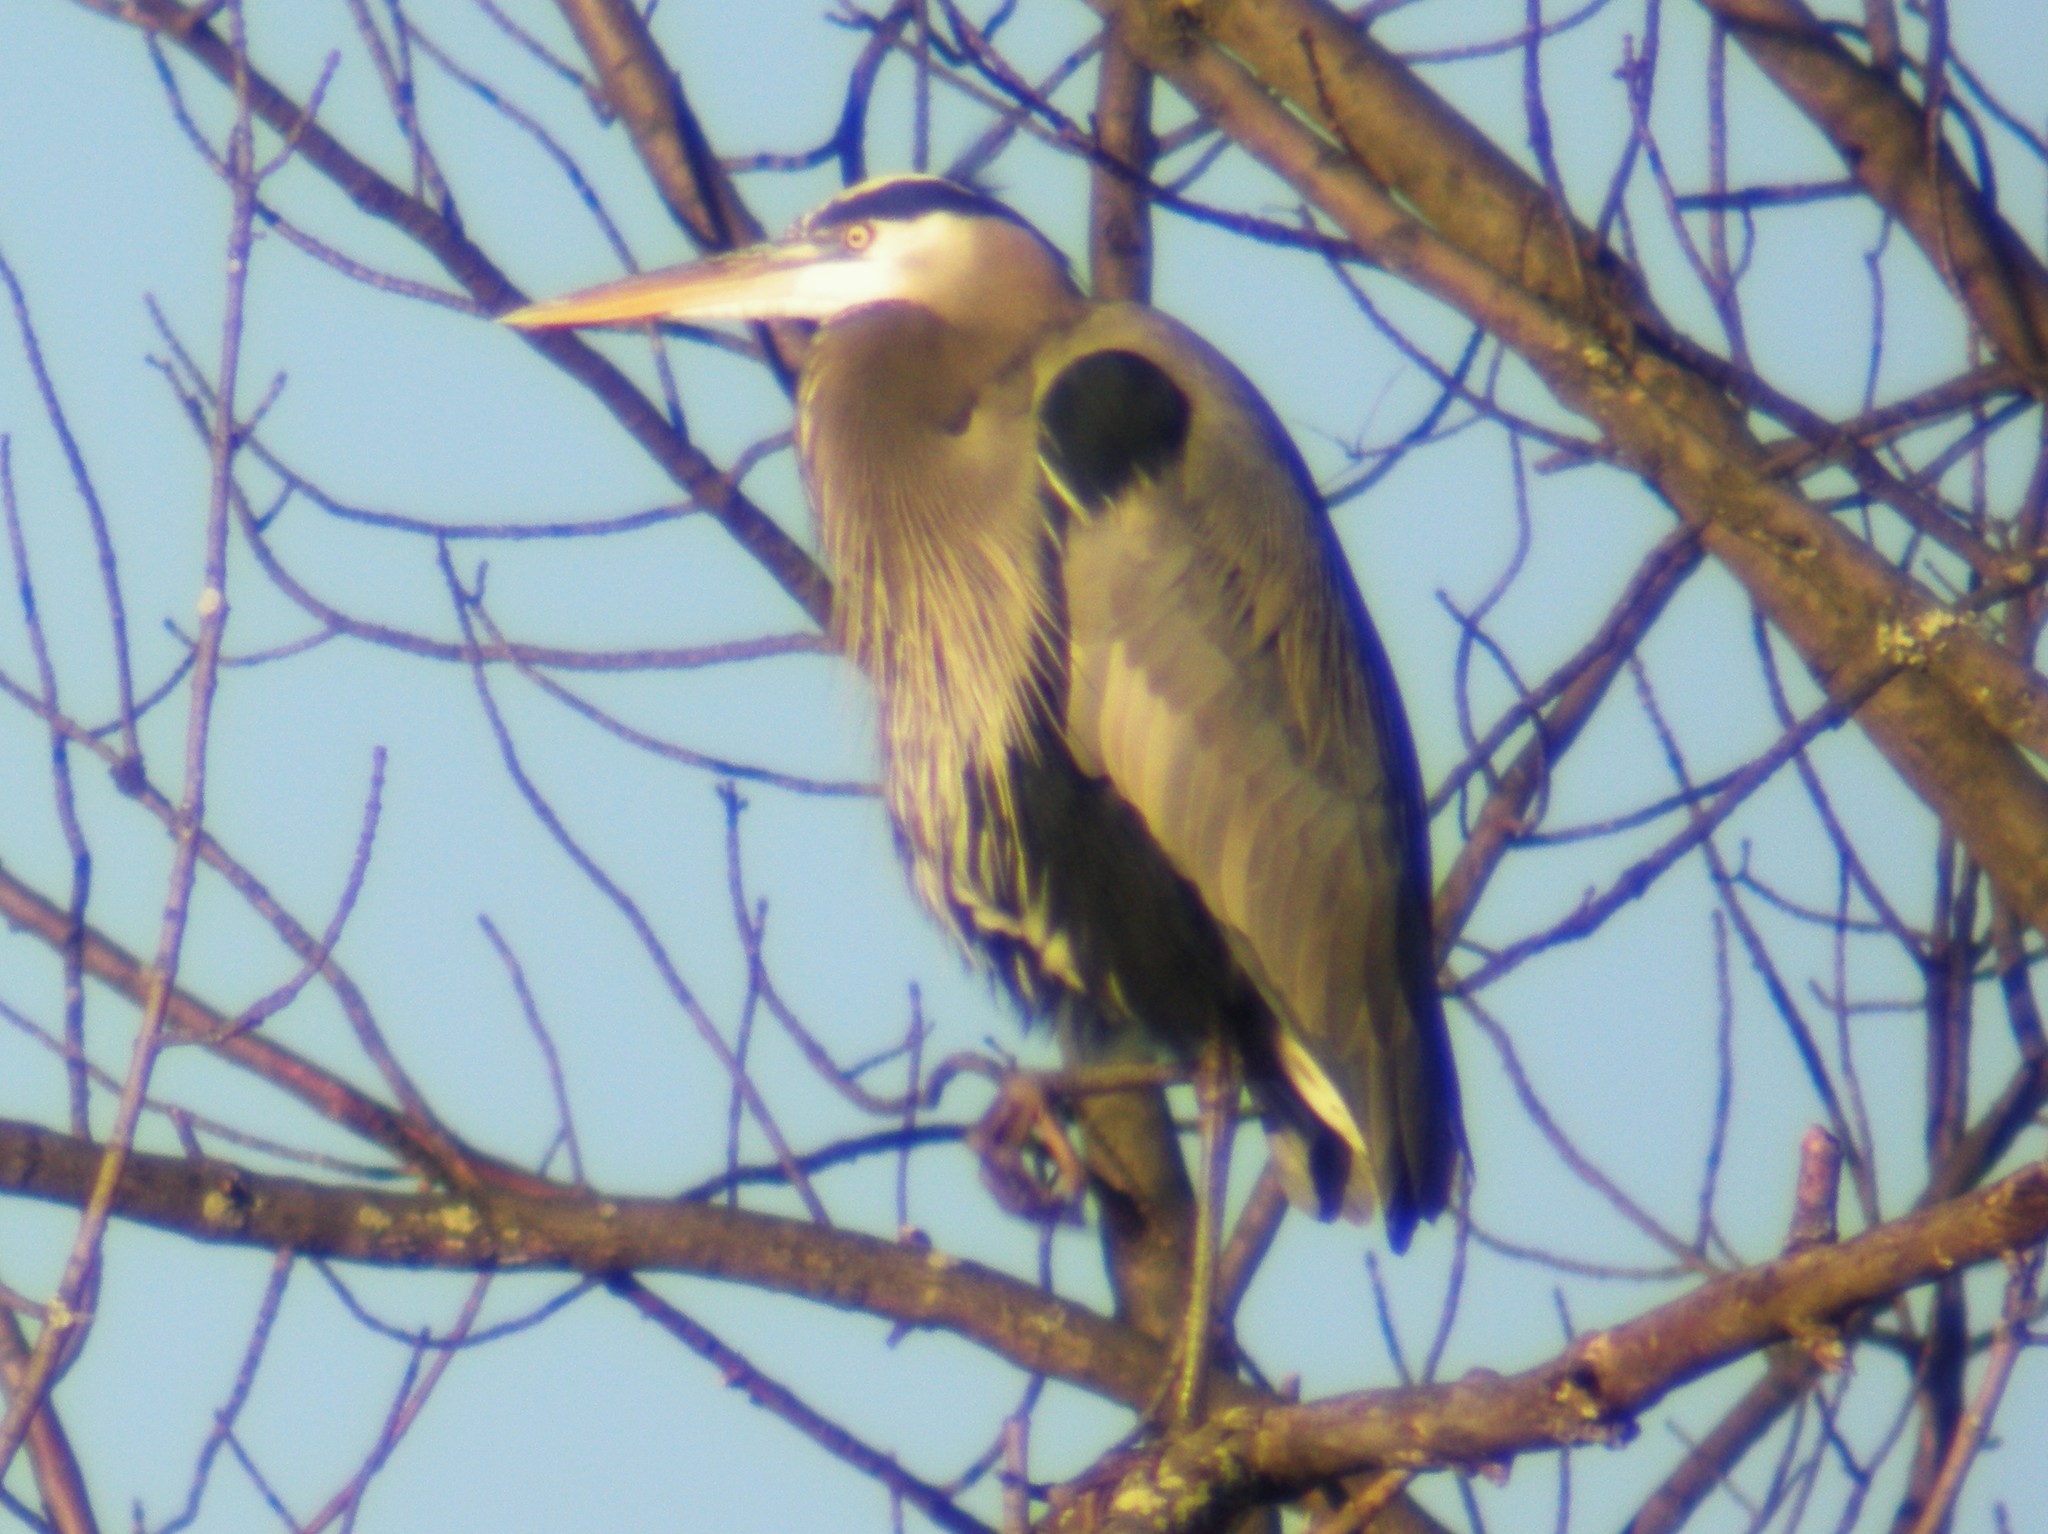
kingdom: Animalia
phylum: Chordata
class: Aves
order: Pelecaniformes
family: Ardeidae
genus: Ardea
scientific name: Ardea herodias
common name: Great blue heron
